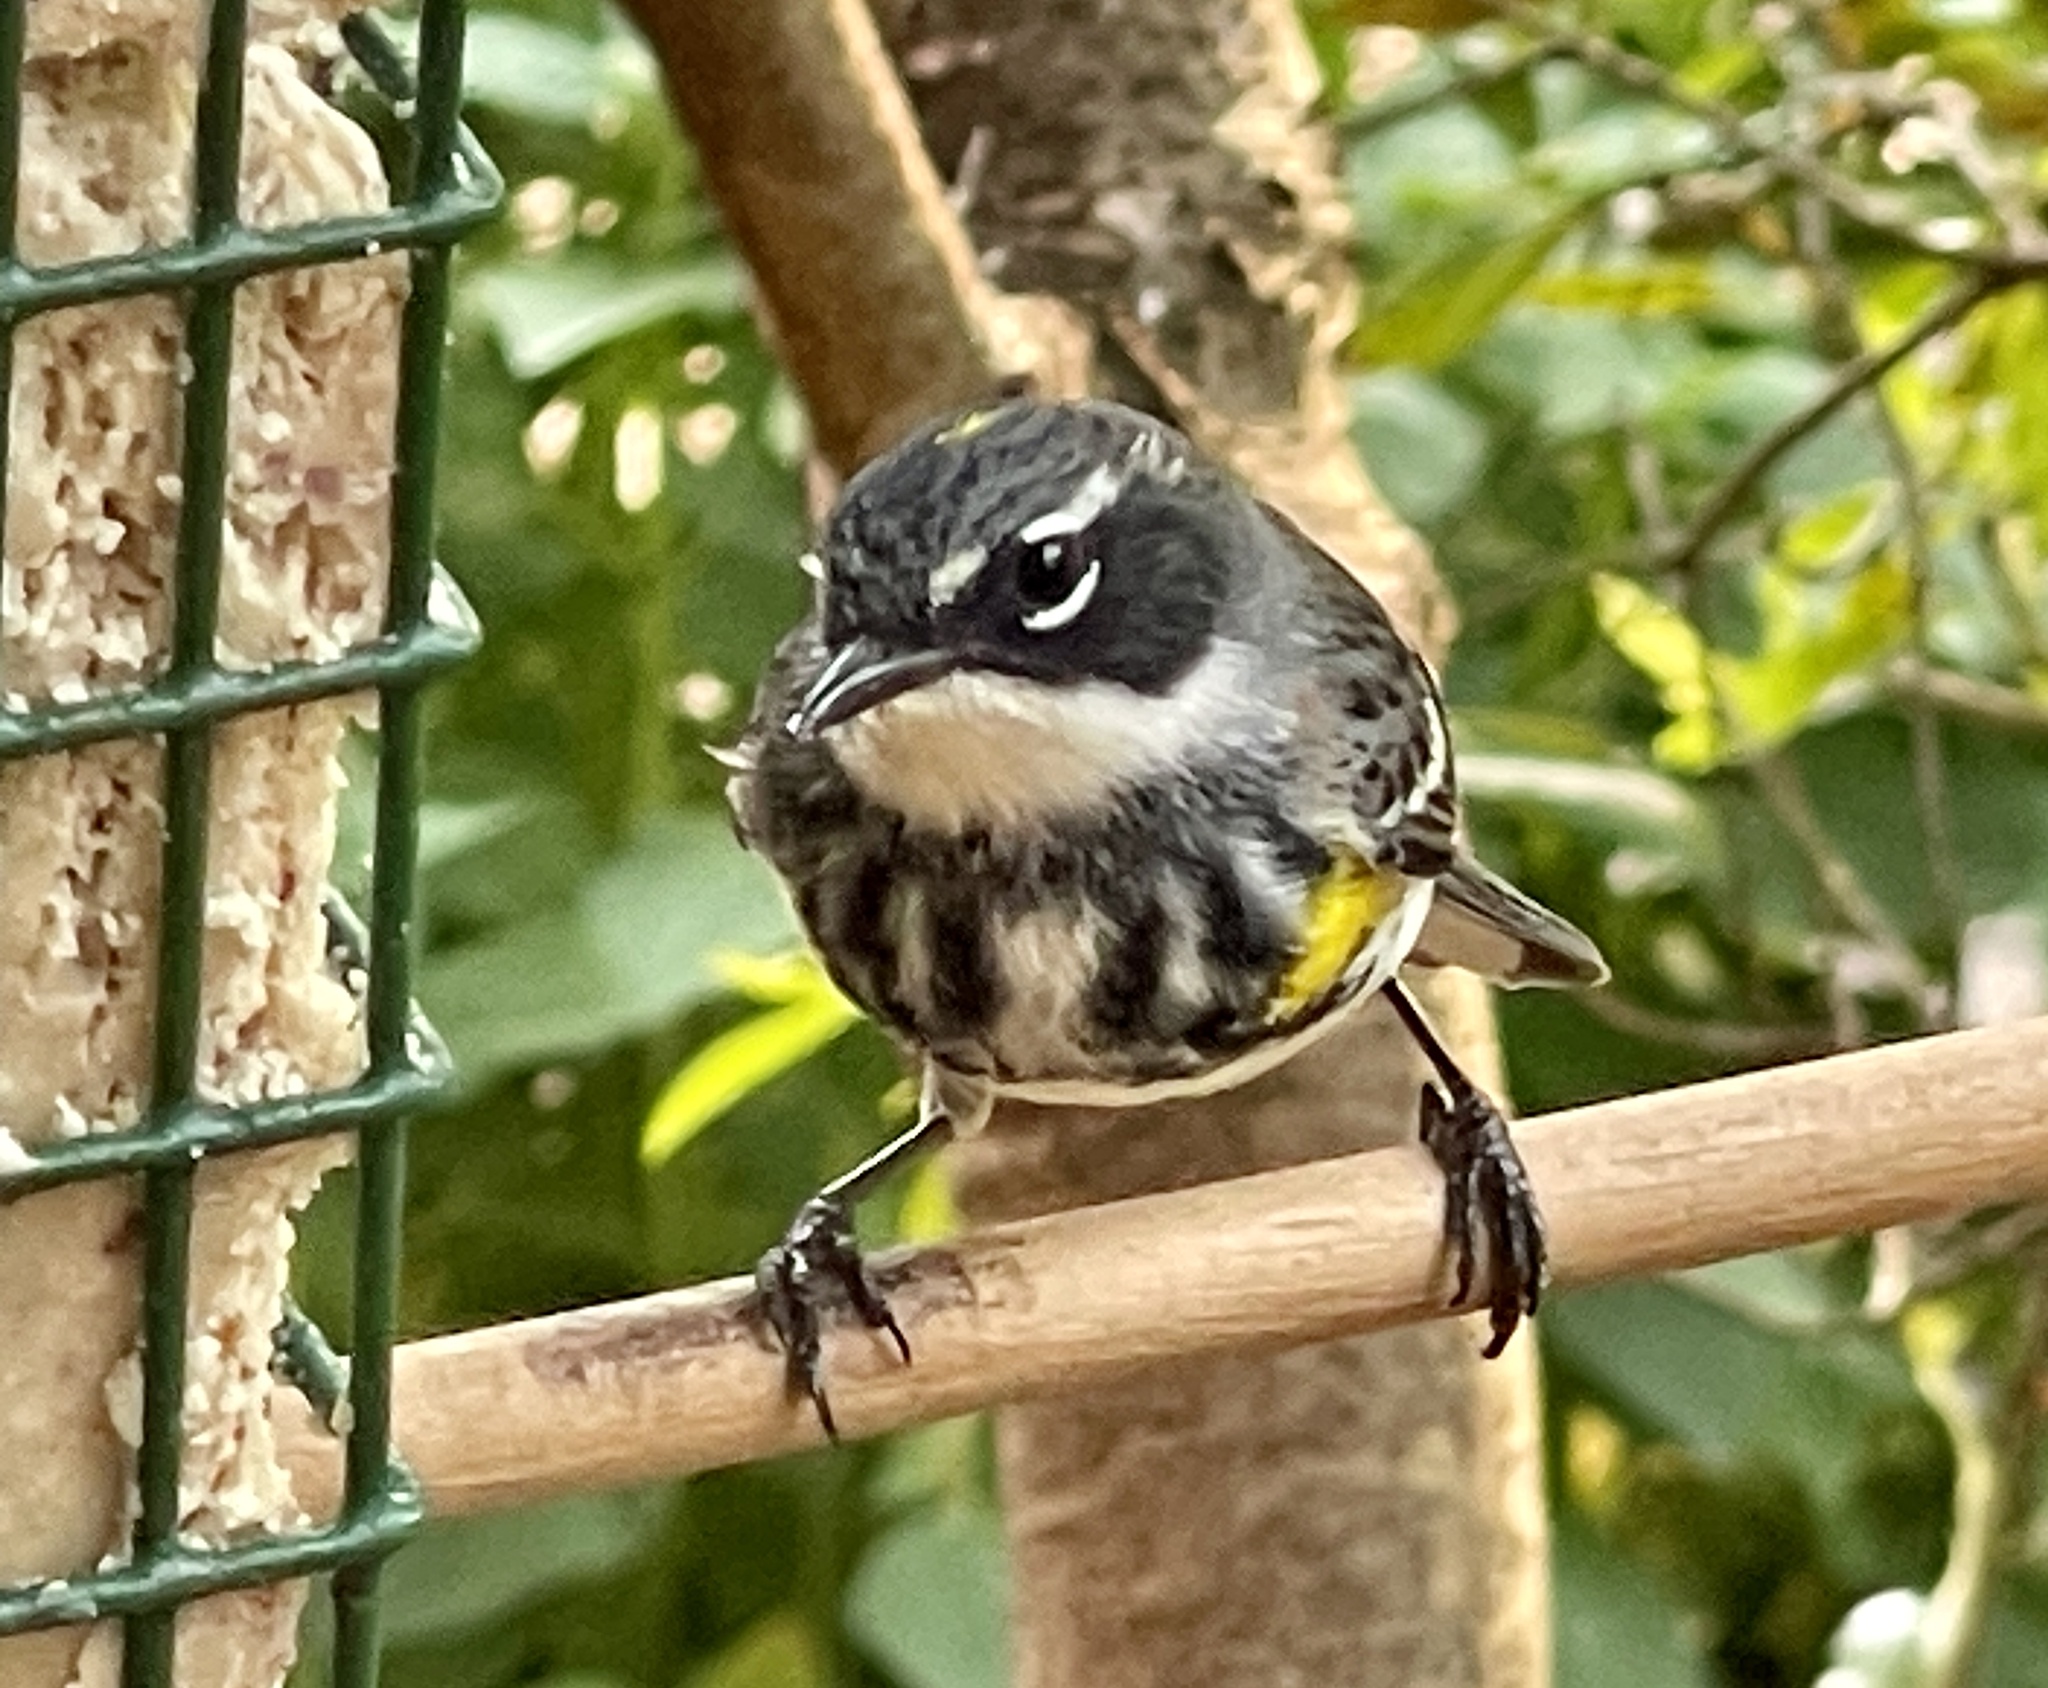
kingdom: Animalia
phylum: Chordata
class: Aves
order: Passeriformes
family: Parulidae
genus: Setophaga
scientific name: Setophaga coronata
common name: Myrtle warbler
